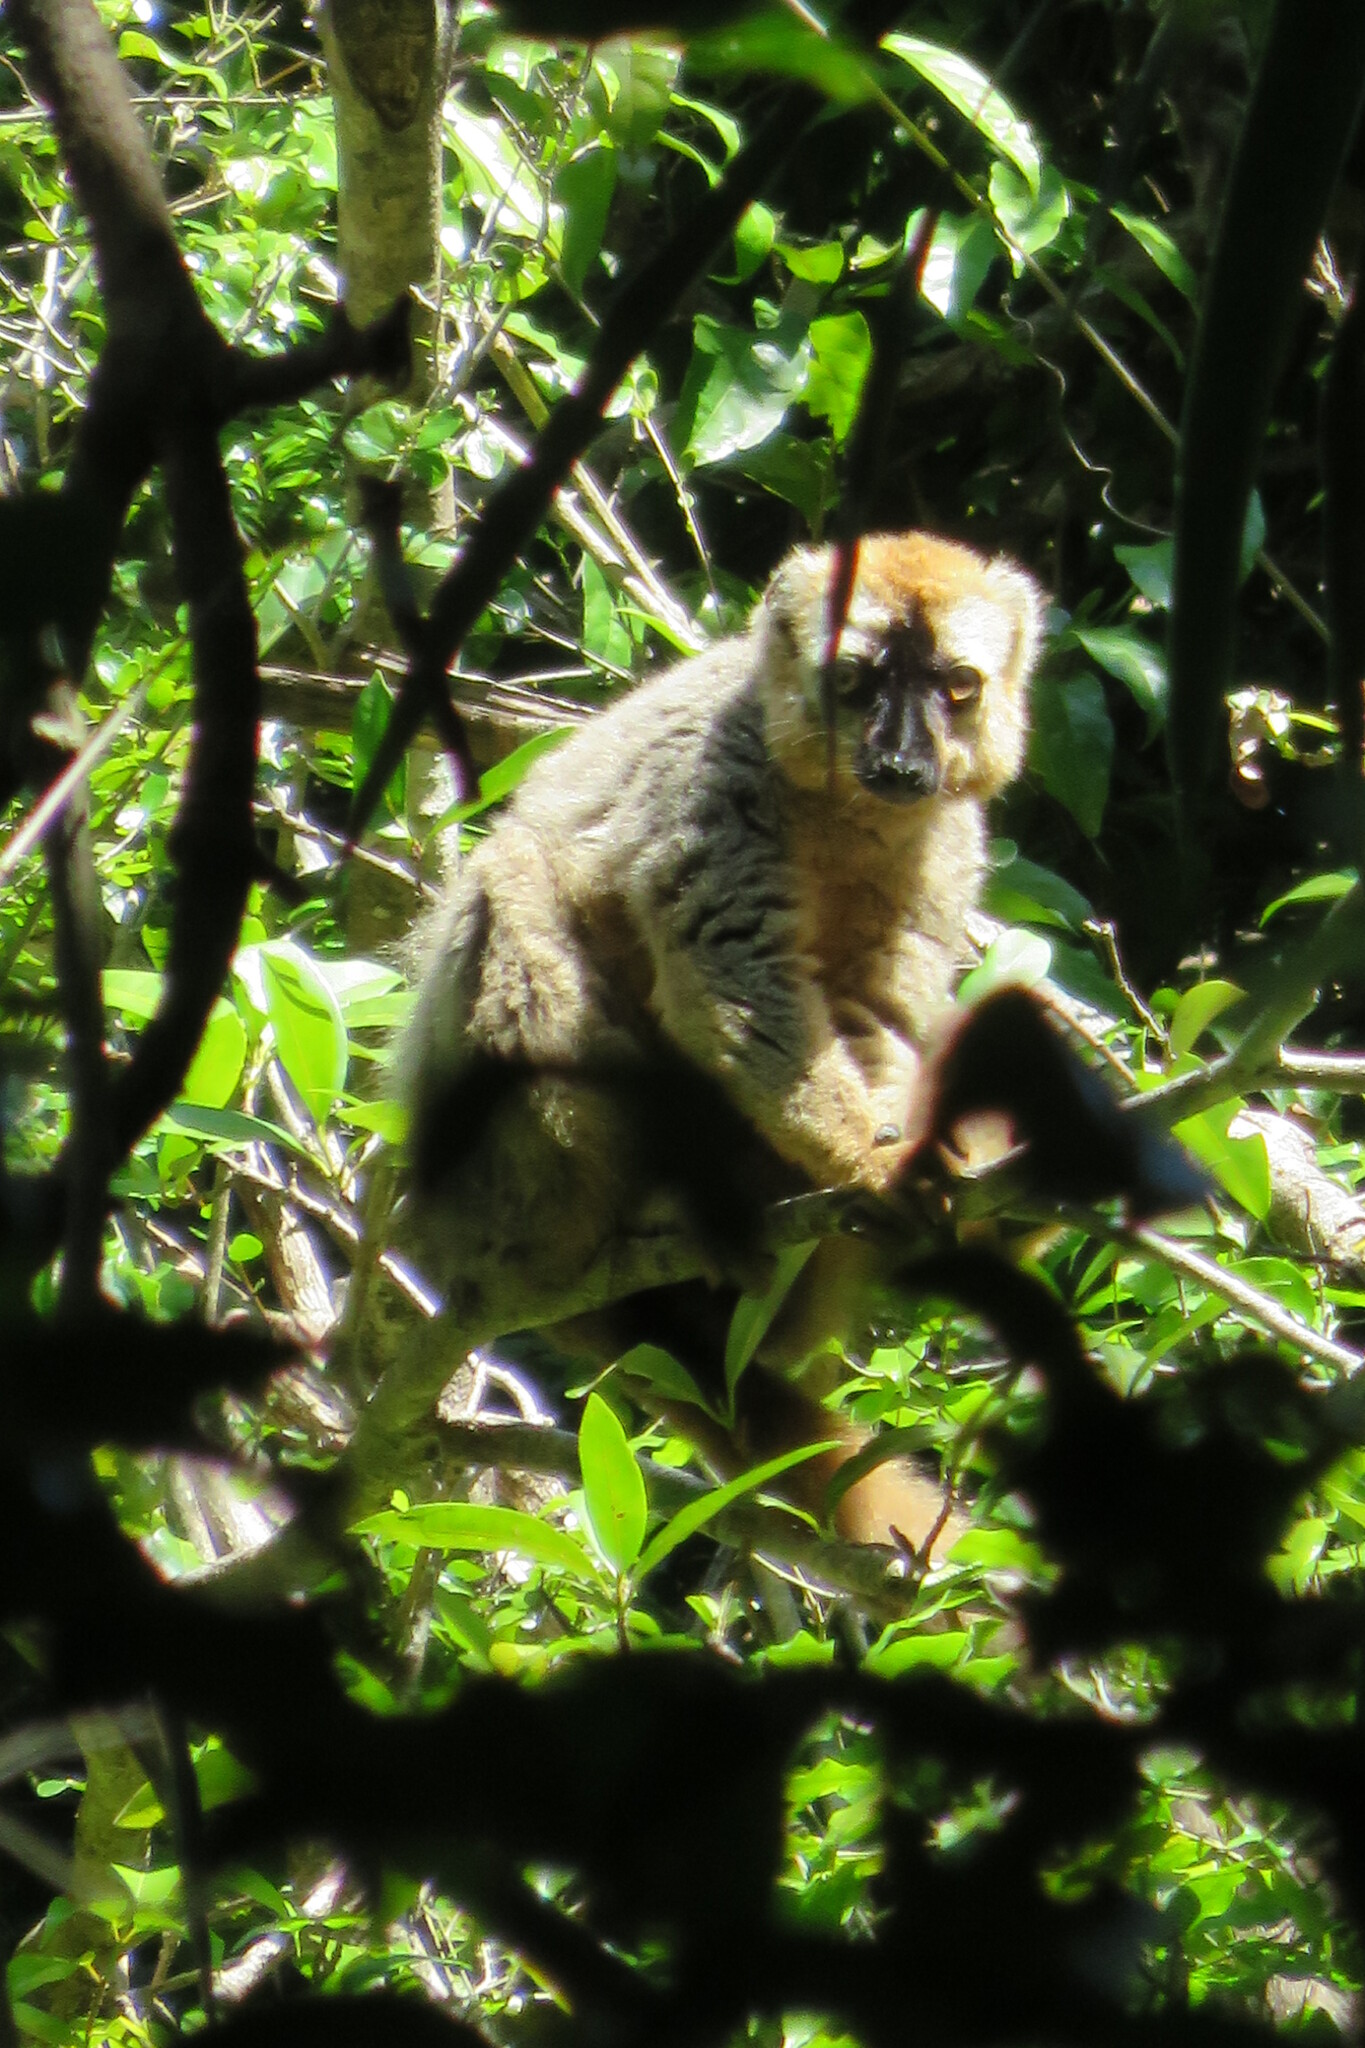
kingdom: Animalia
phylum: Chordata
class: Mammalia
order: Primates
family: Lemuridae
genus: Eulemur
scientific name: Eulemur rufus
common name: Red-fronted lemur
